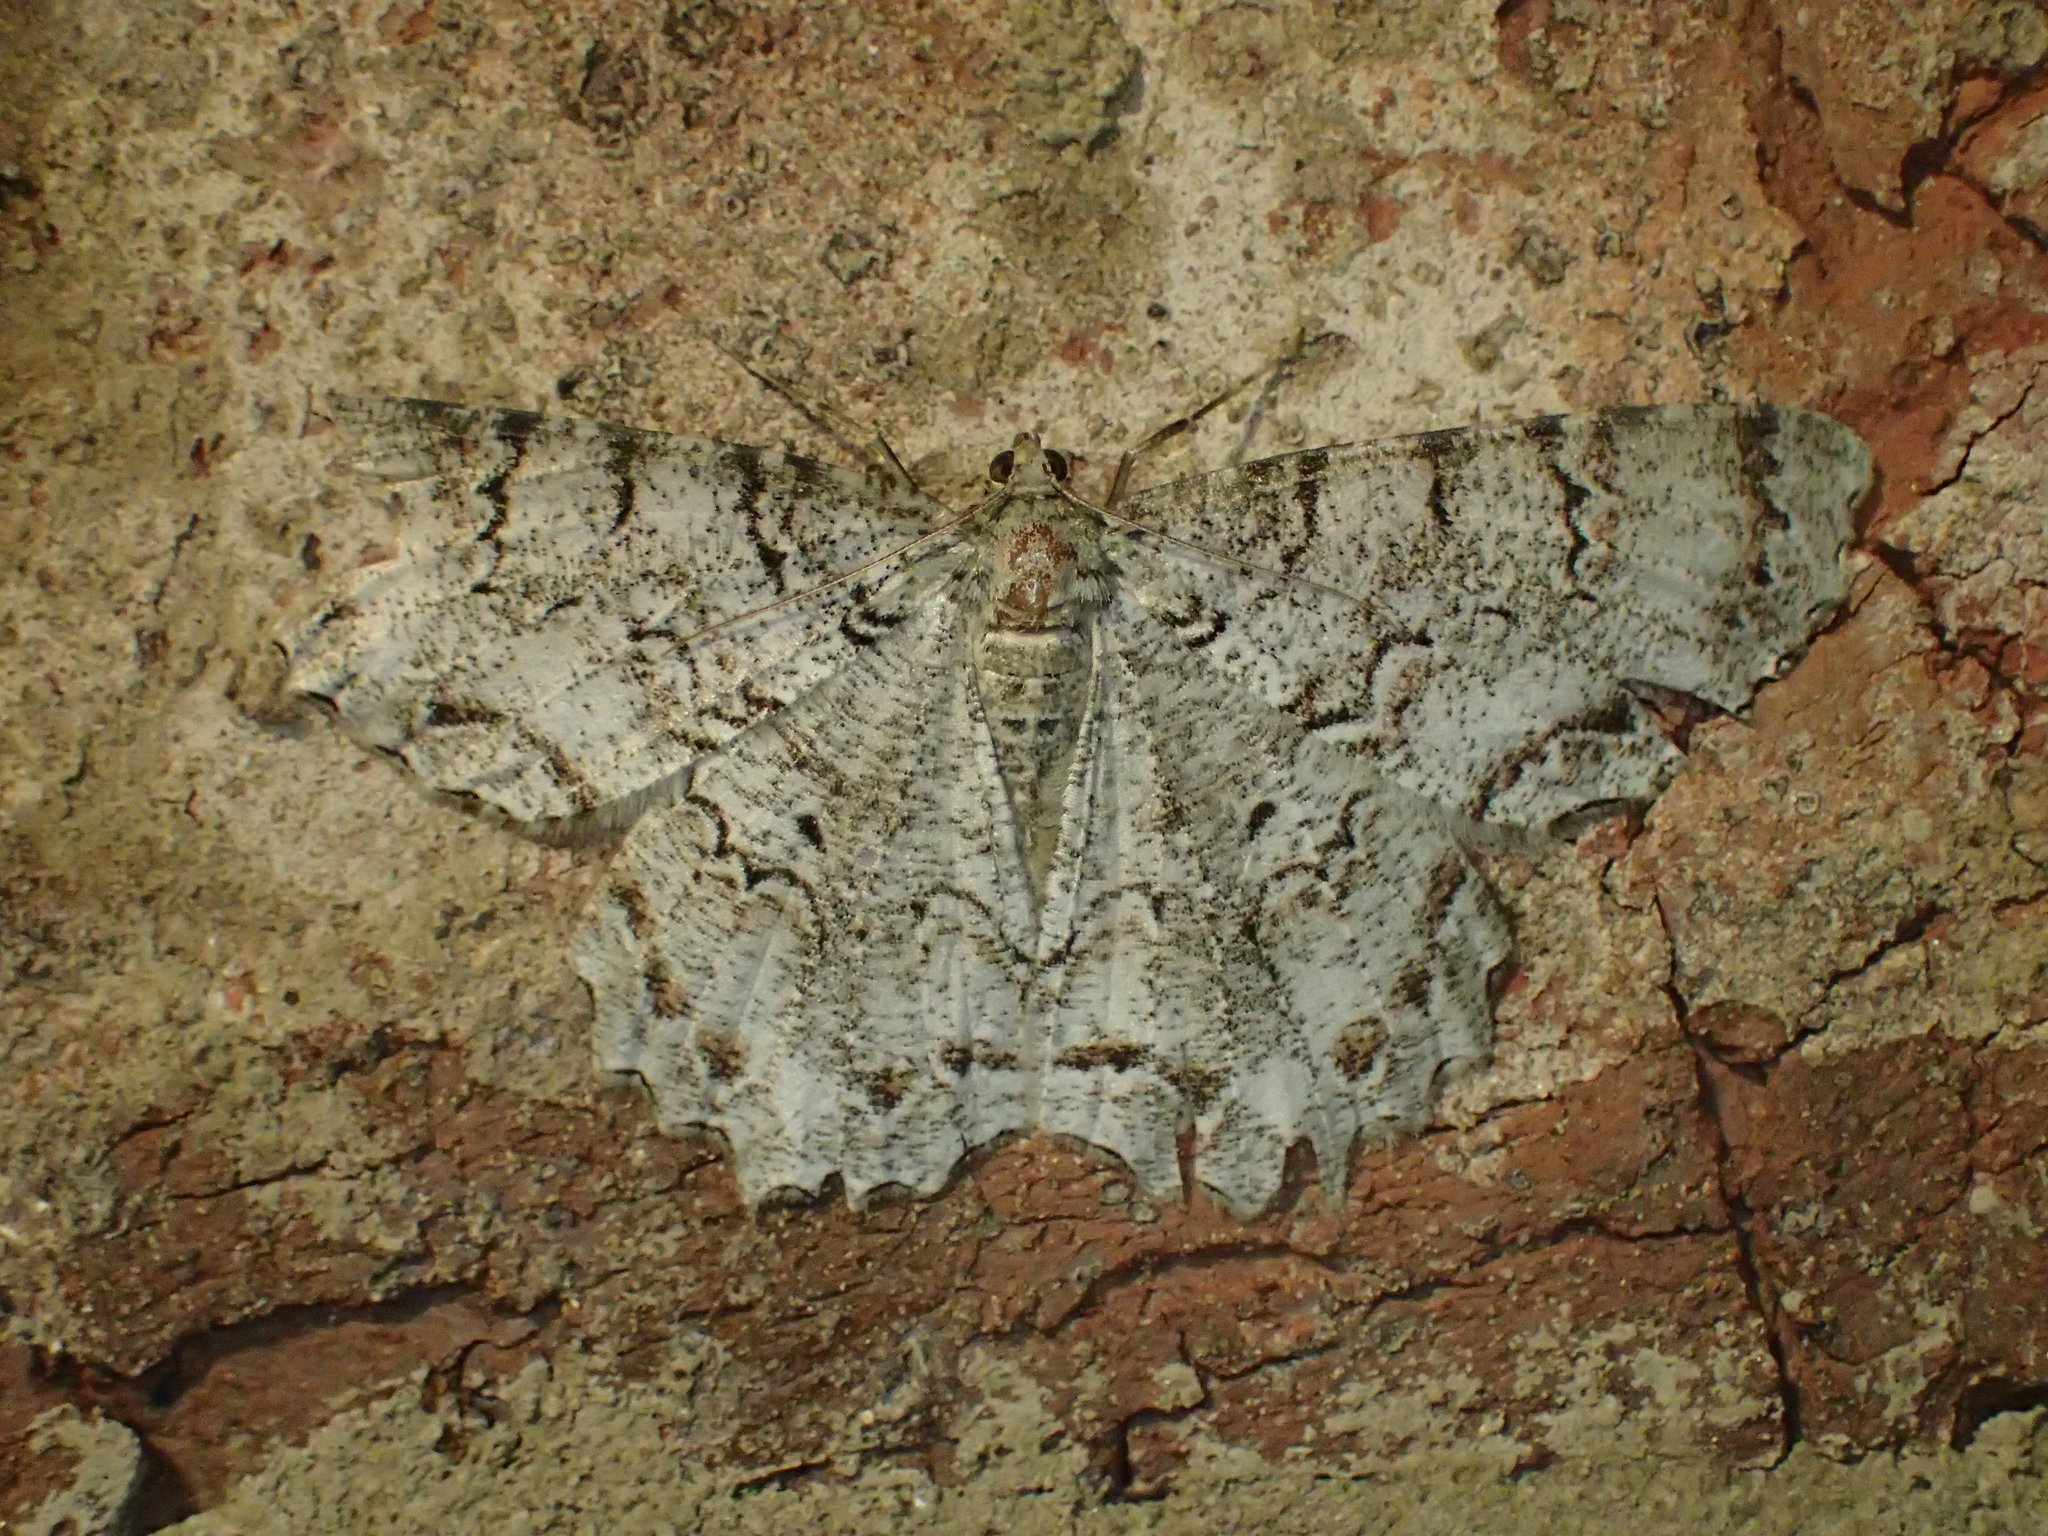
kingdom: Animalia
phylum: Arthropoda
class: Insecta
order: Lepidoptera
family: Geometridae
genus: Epimecis
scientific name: Epimecis hortaria
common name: Tulip-tree beauty
